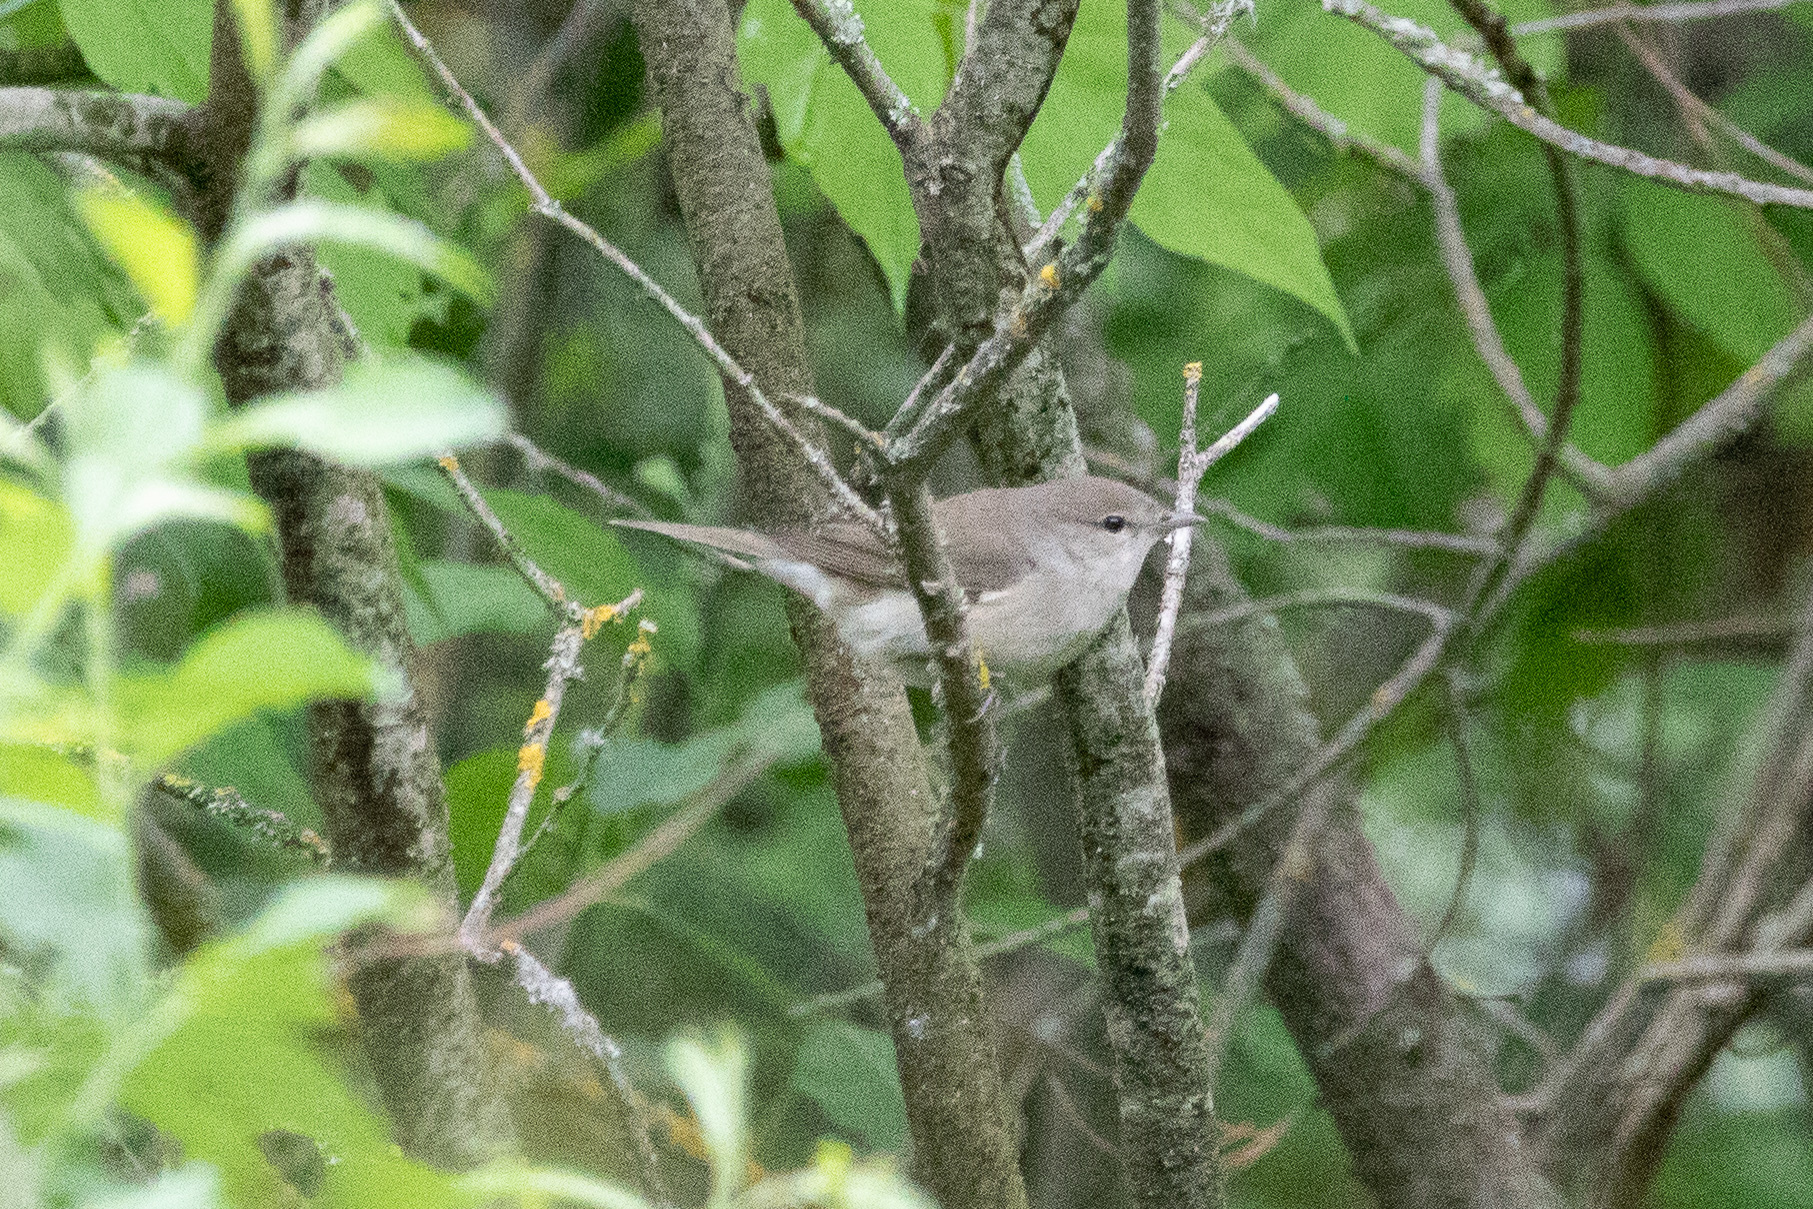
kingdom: Animalia
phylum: Chordata
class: Aves
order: Passeriformes
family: Sylviidae
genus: Sylvia
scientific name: Sylvia borin
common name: Garden warbler
